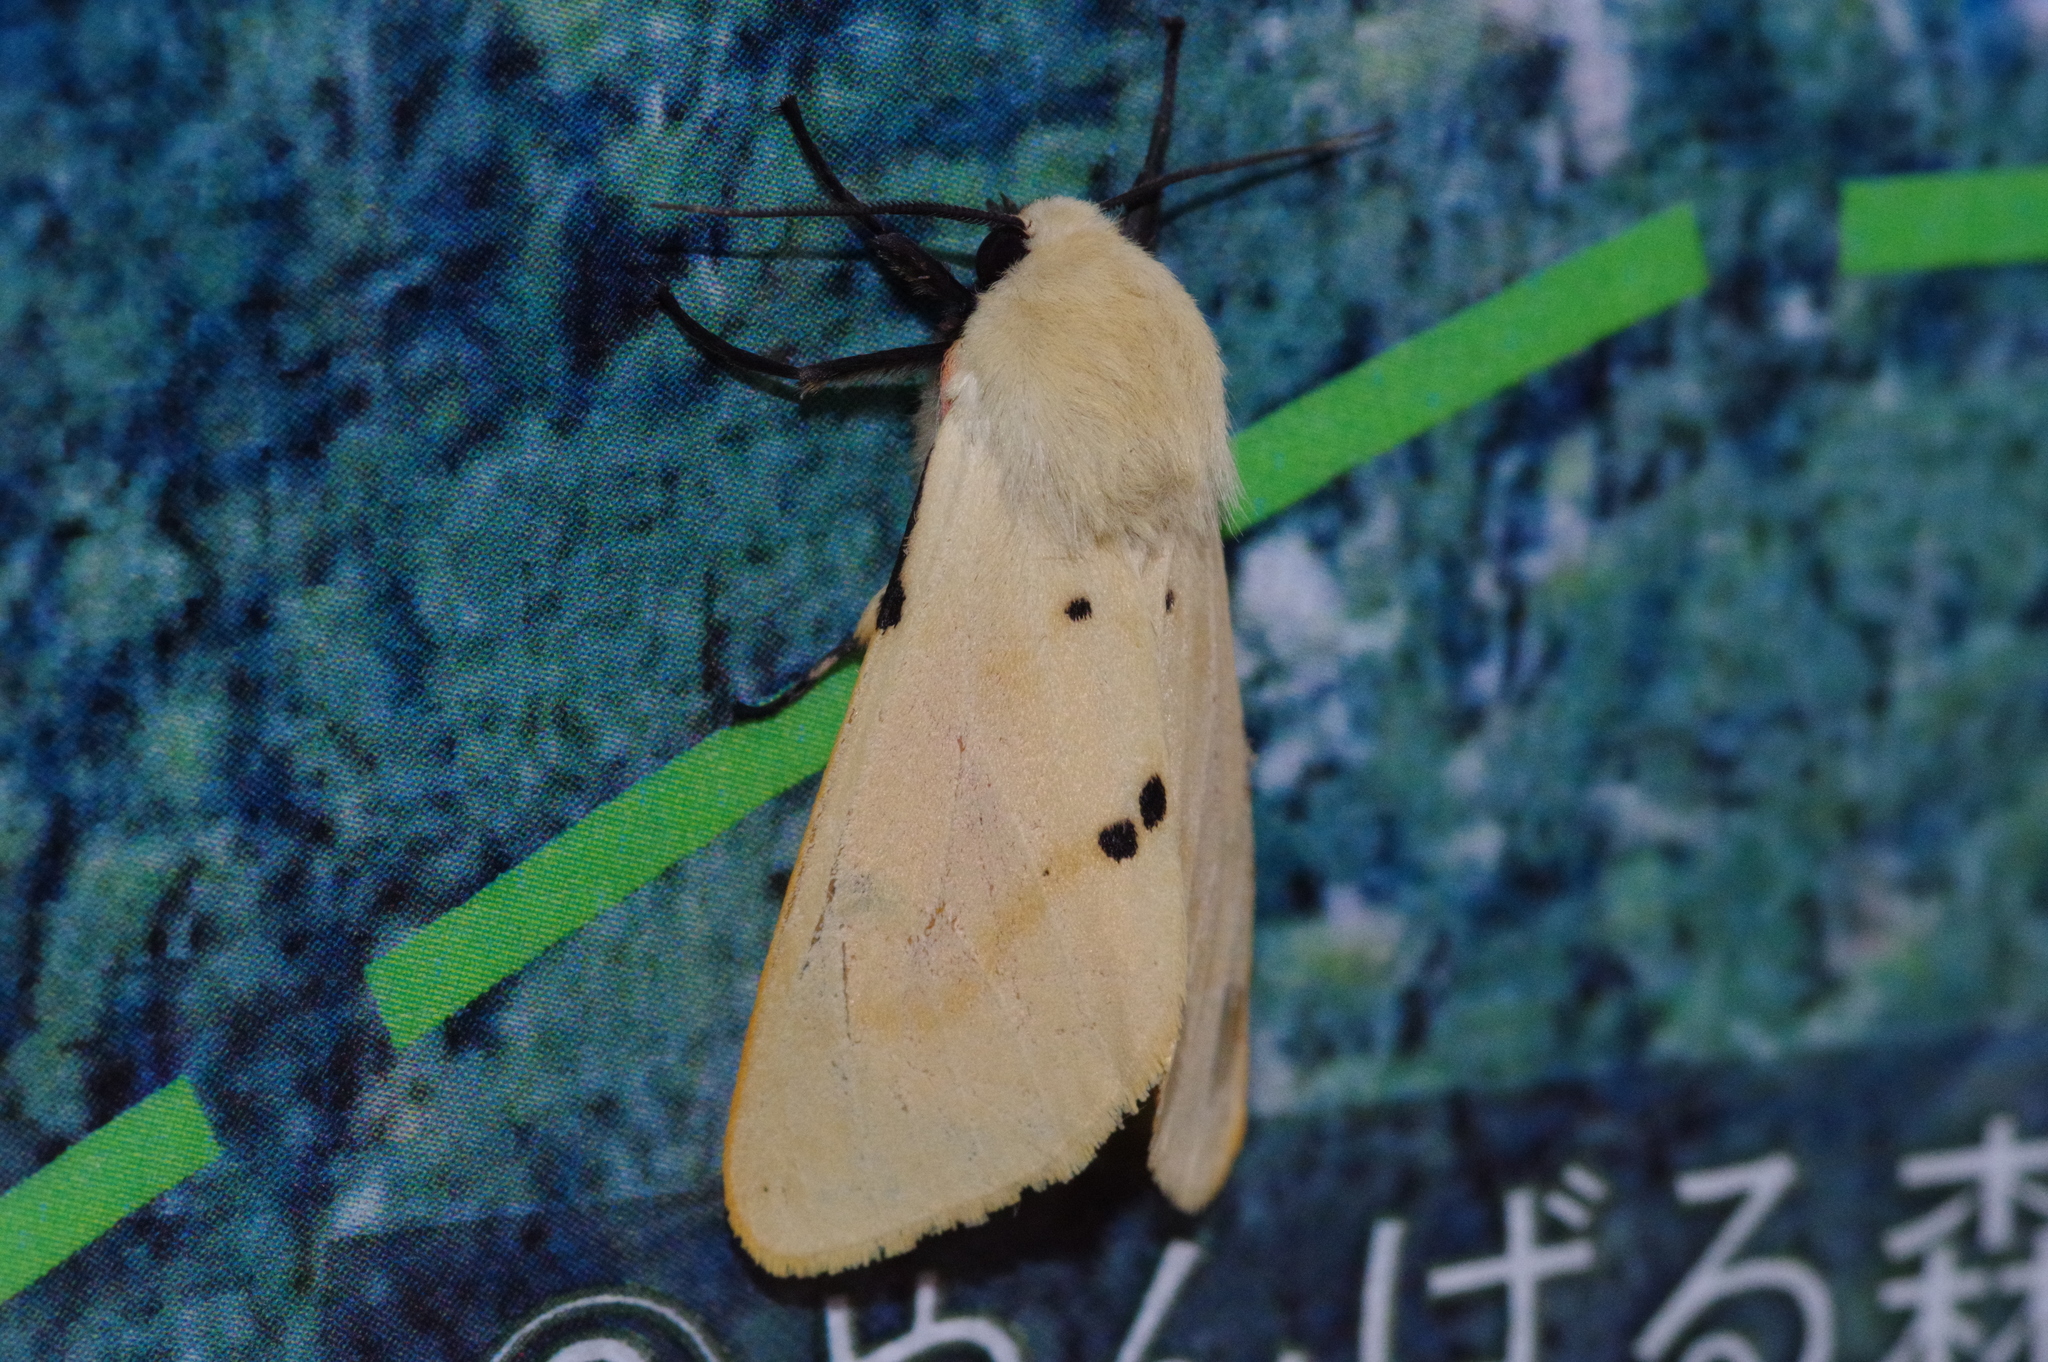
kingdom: Animalia
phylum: Arthropoda
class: Insecta
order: Lepidoptera
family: Erebidae
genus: Spilarctia
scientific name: Spilarctia seriatopunctata
